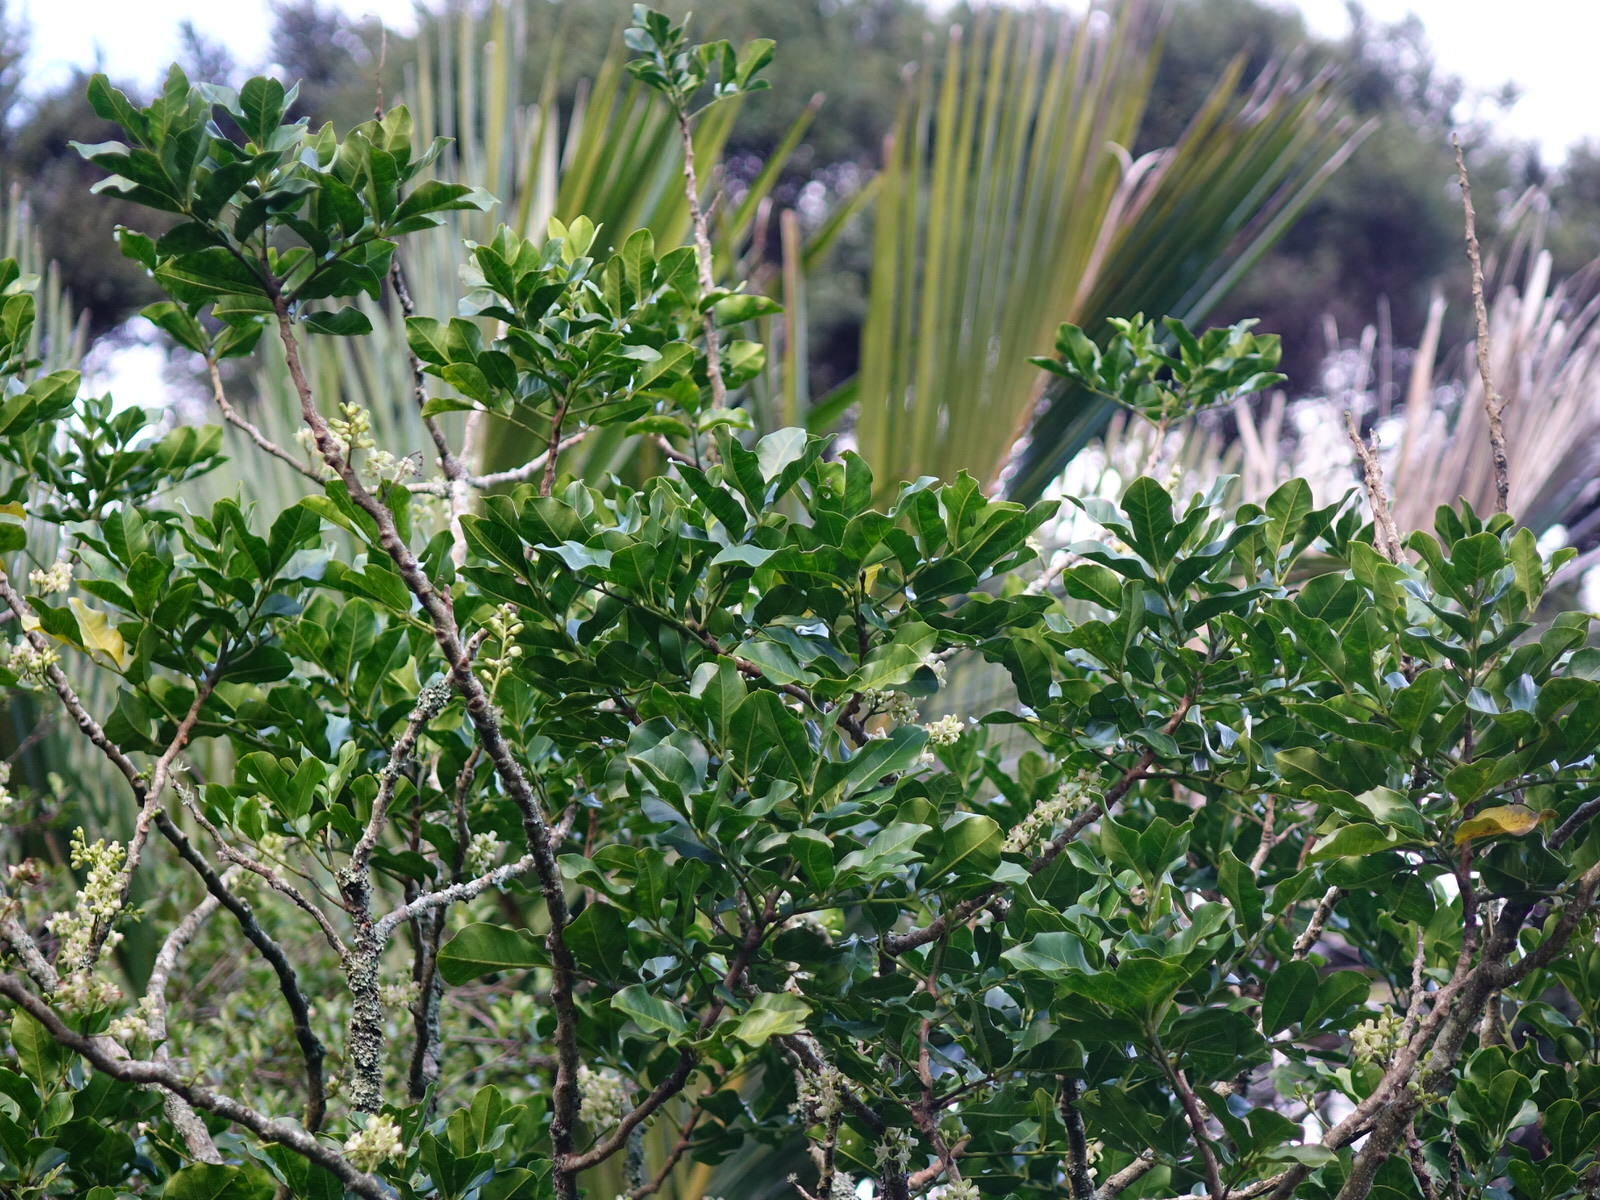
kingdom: Plantae
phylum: Tracheophyta
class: Magnoliopsida
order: Sapindales
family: Meliaceae
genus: Didymocheton
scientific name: Didymocheton spectabilis
